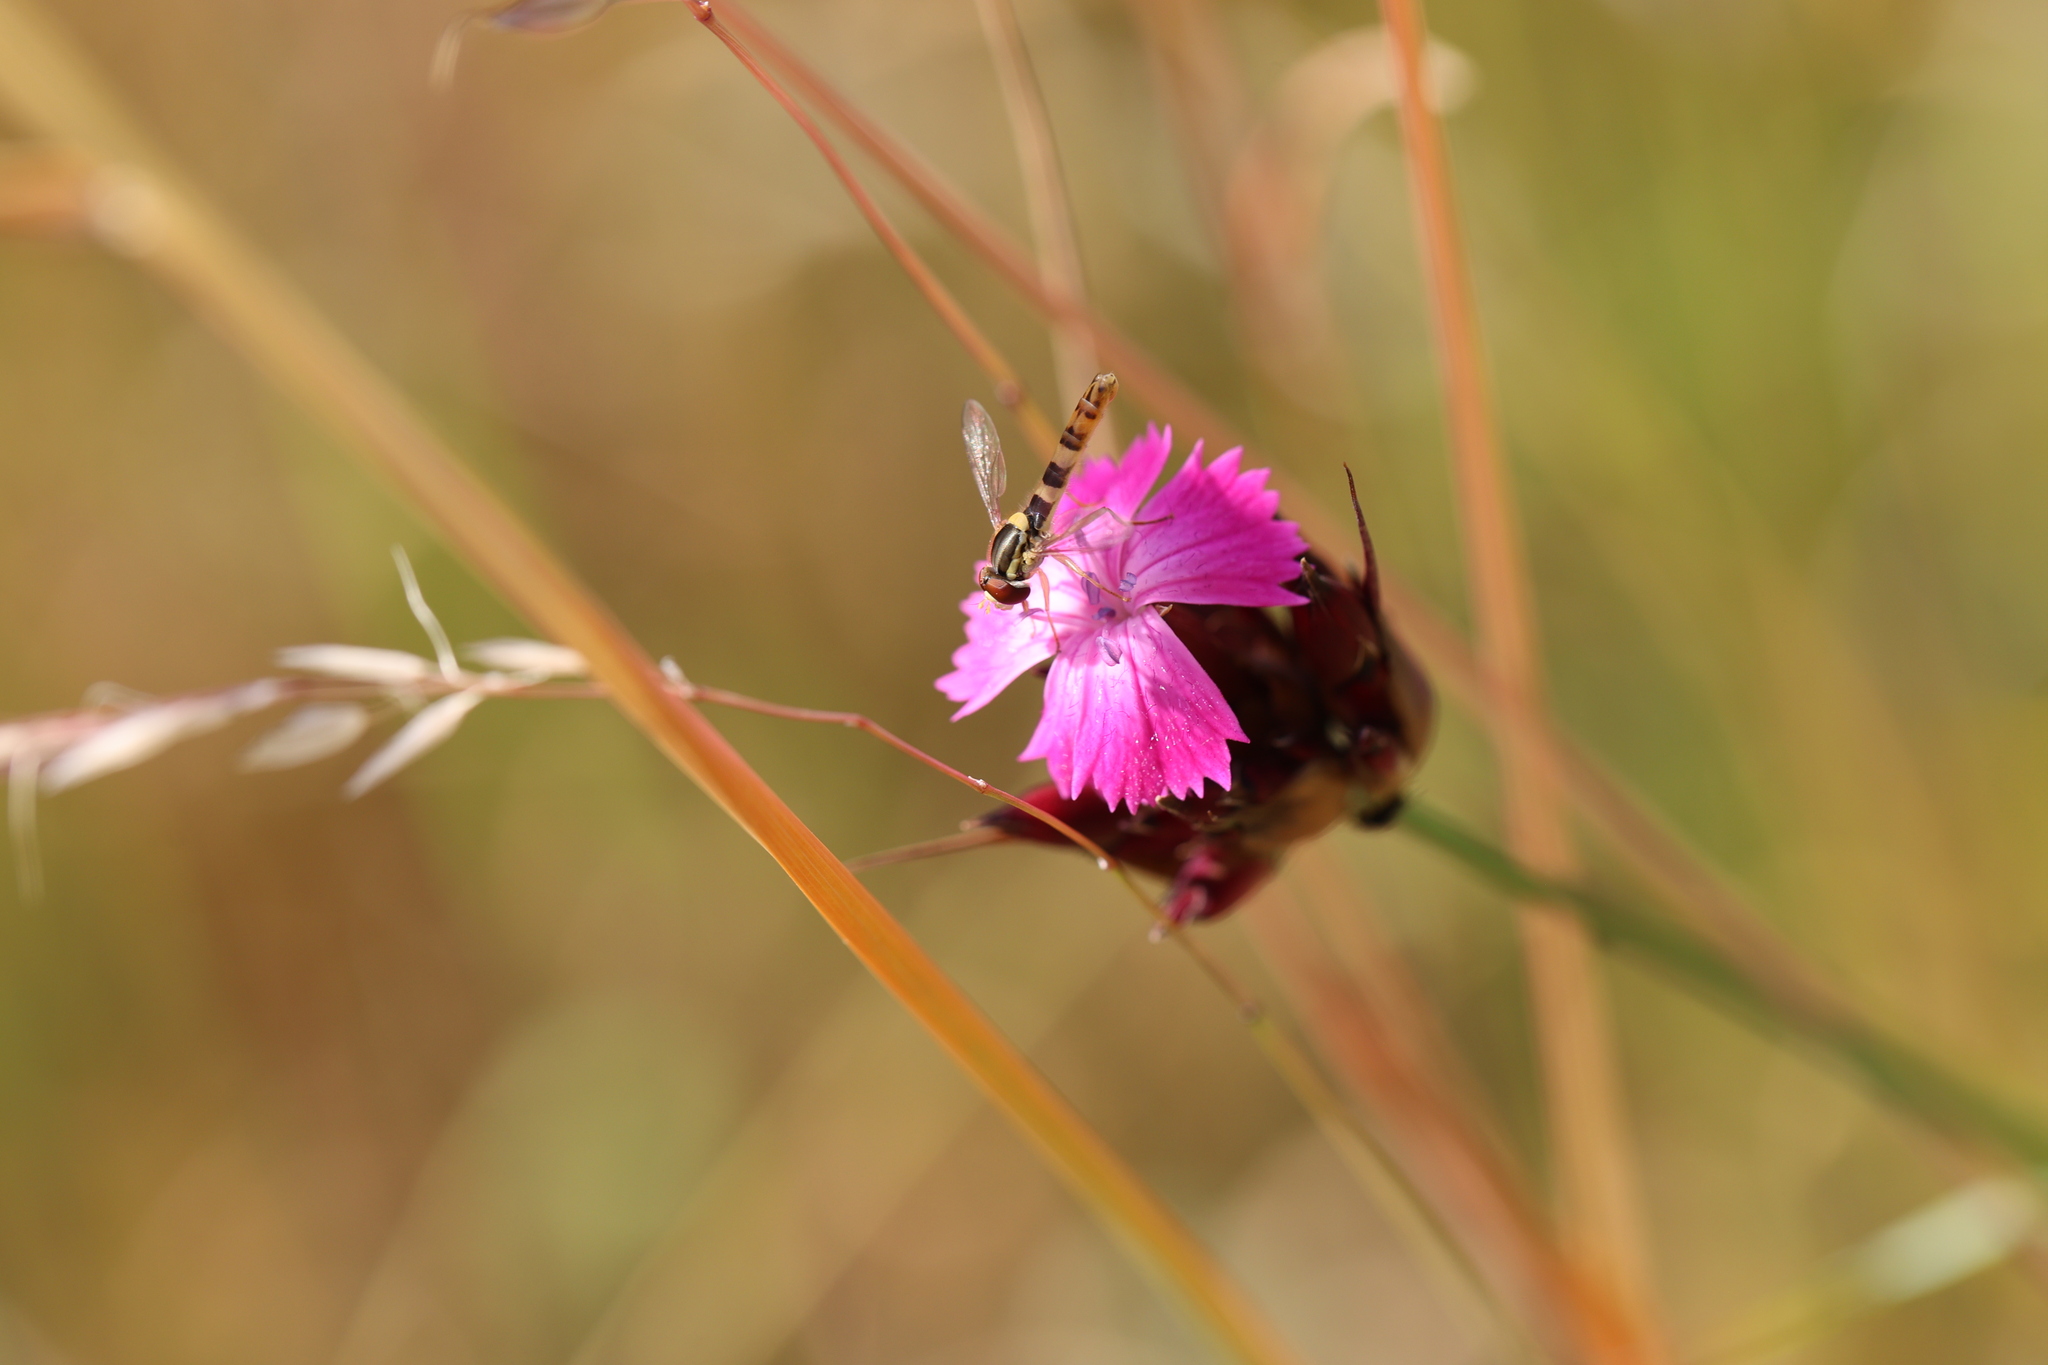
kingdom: Plantae
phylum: Tracheophyta
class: Magnoliopsida
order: Caryophyllales
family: Caryophyllaceae
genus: Dianthus
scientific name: Dianthus carthusianorum
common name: Carthusian pink
